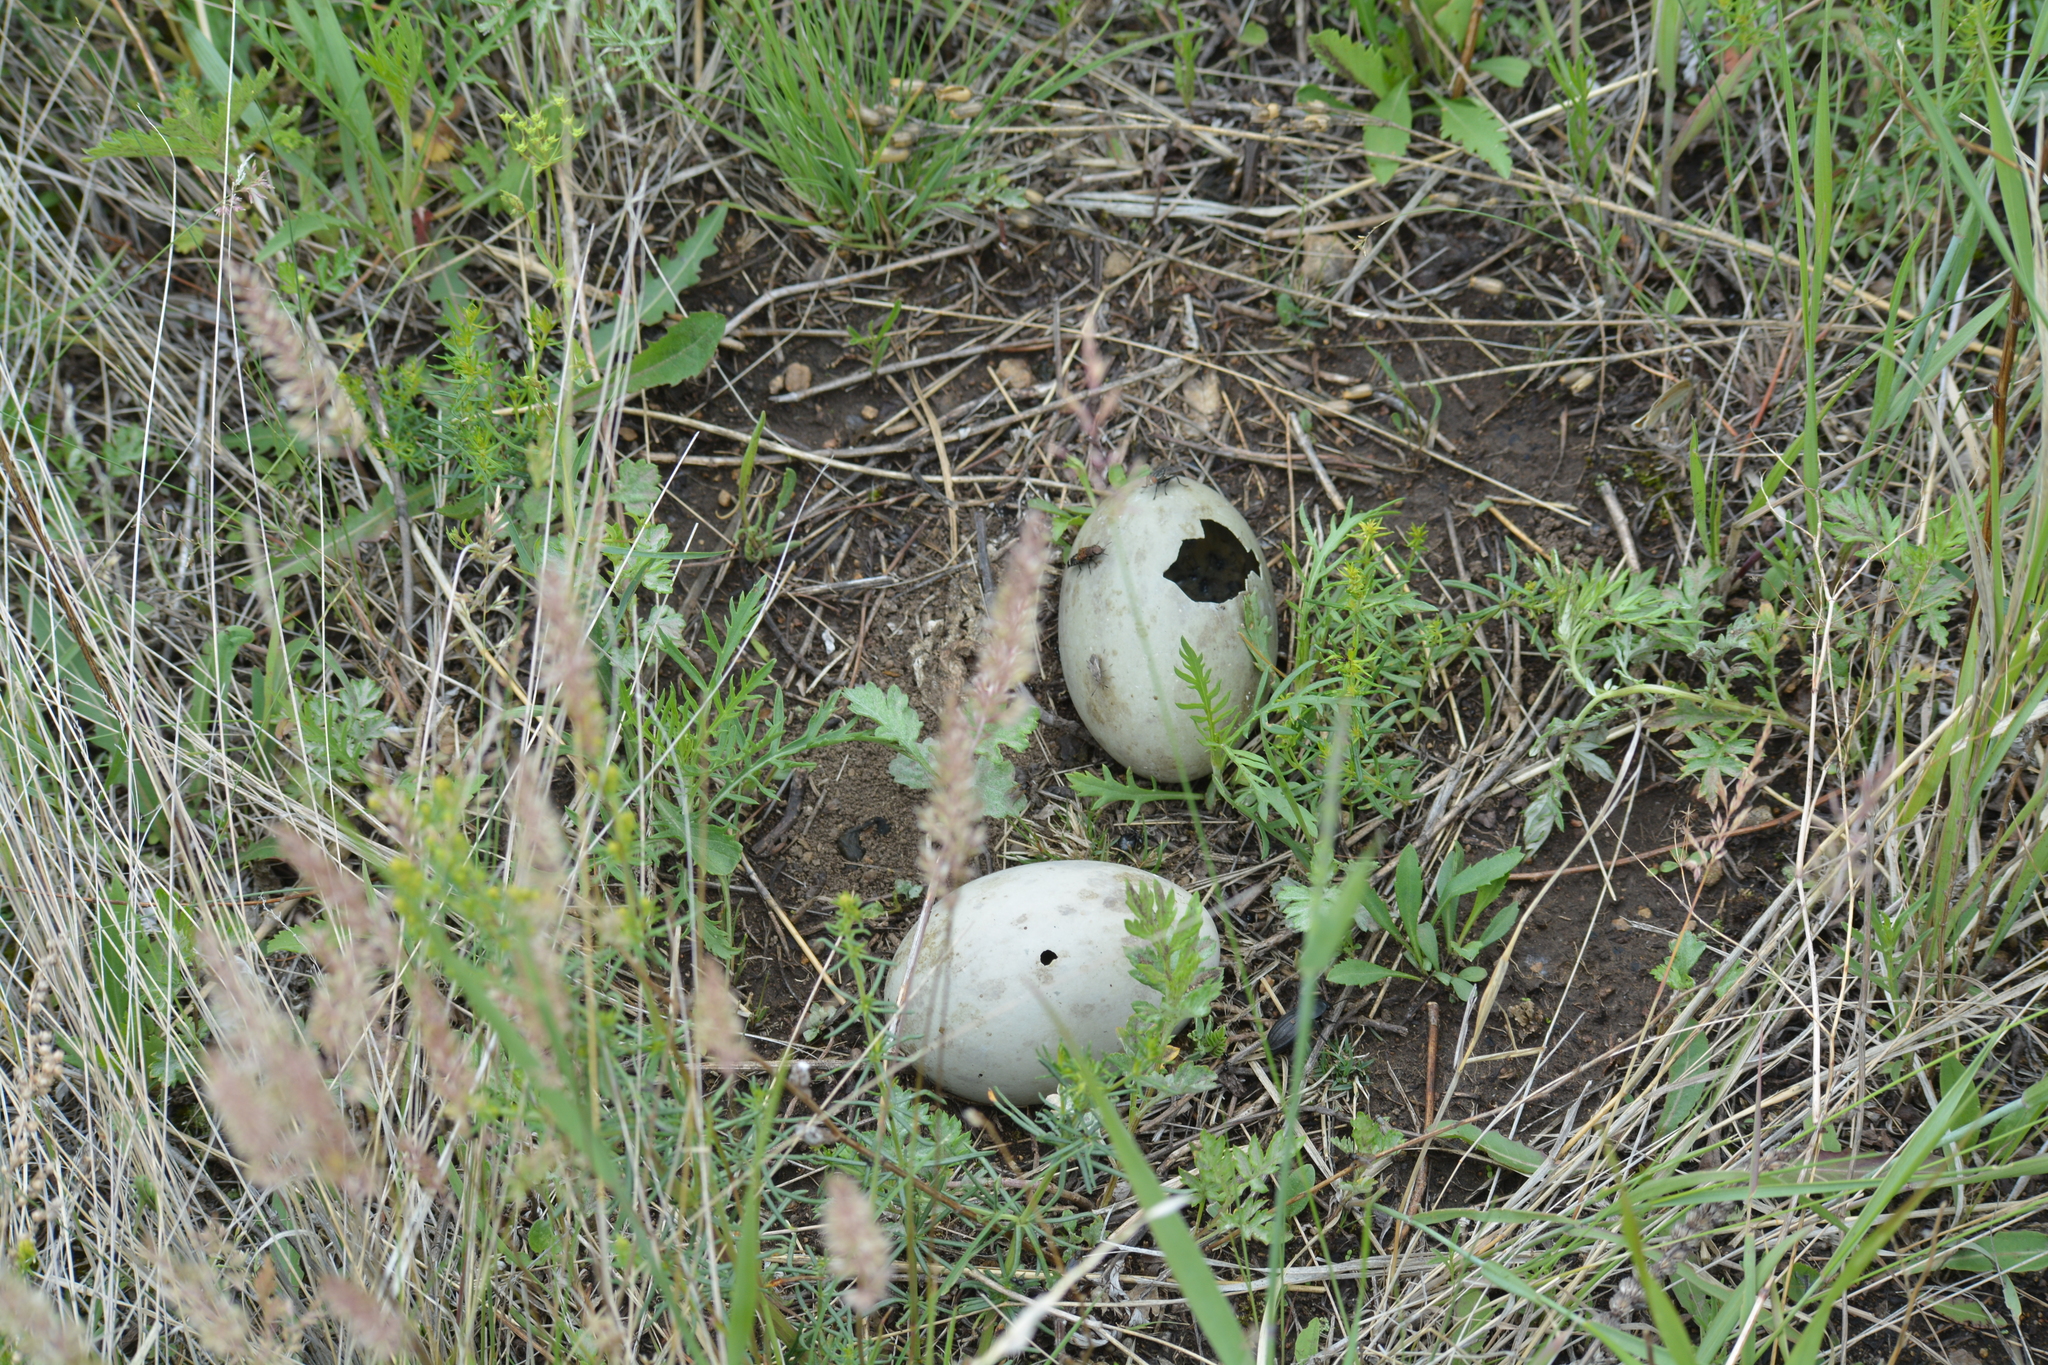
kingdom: Animalia
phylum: Chordata
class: Aves
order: Otidiformes
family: Otididae
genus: Otis
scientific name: Otis tarda
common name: Great bustard
